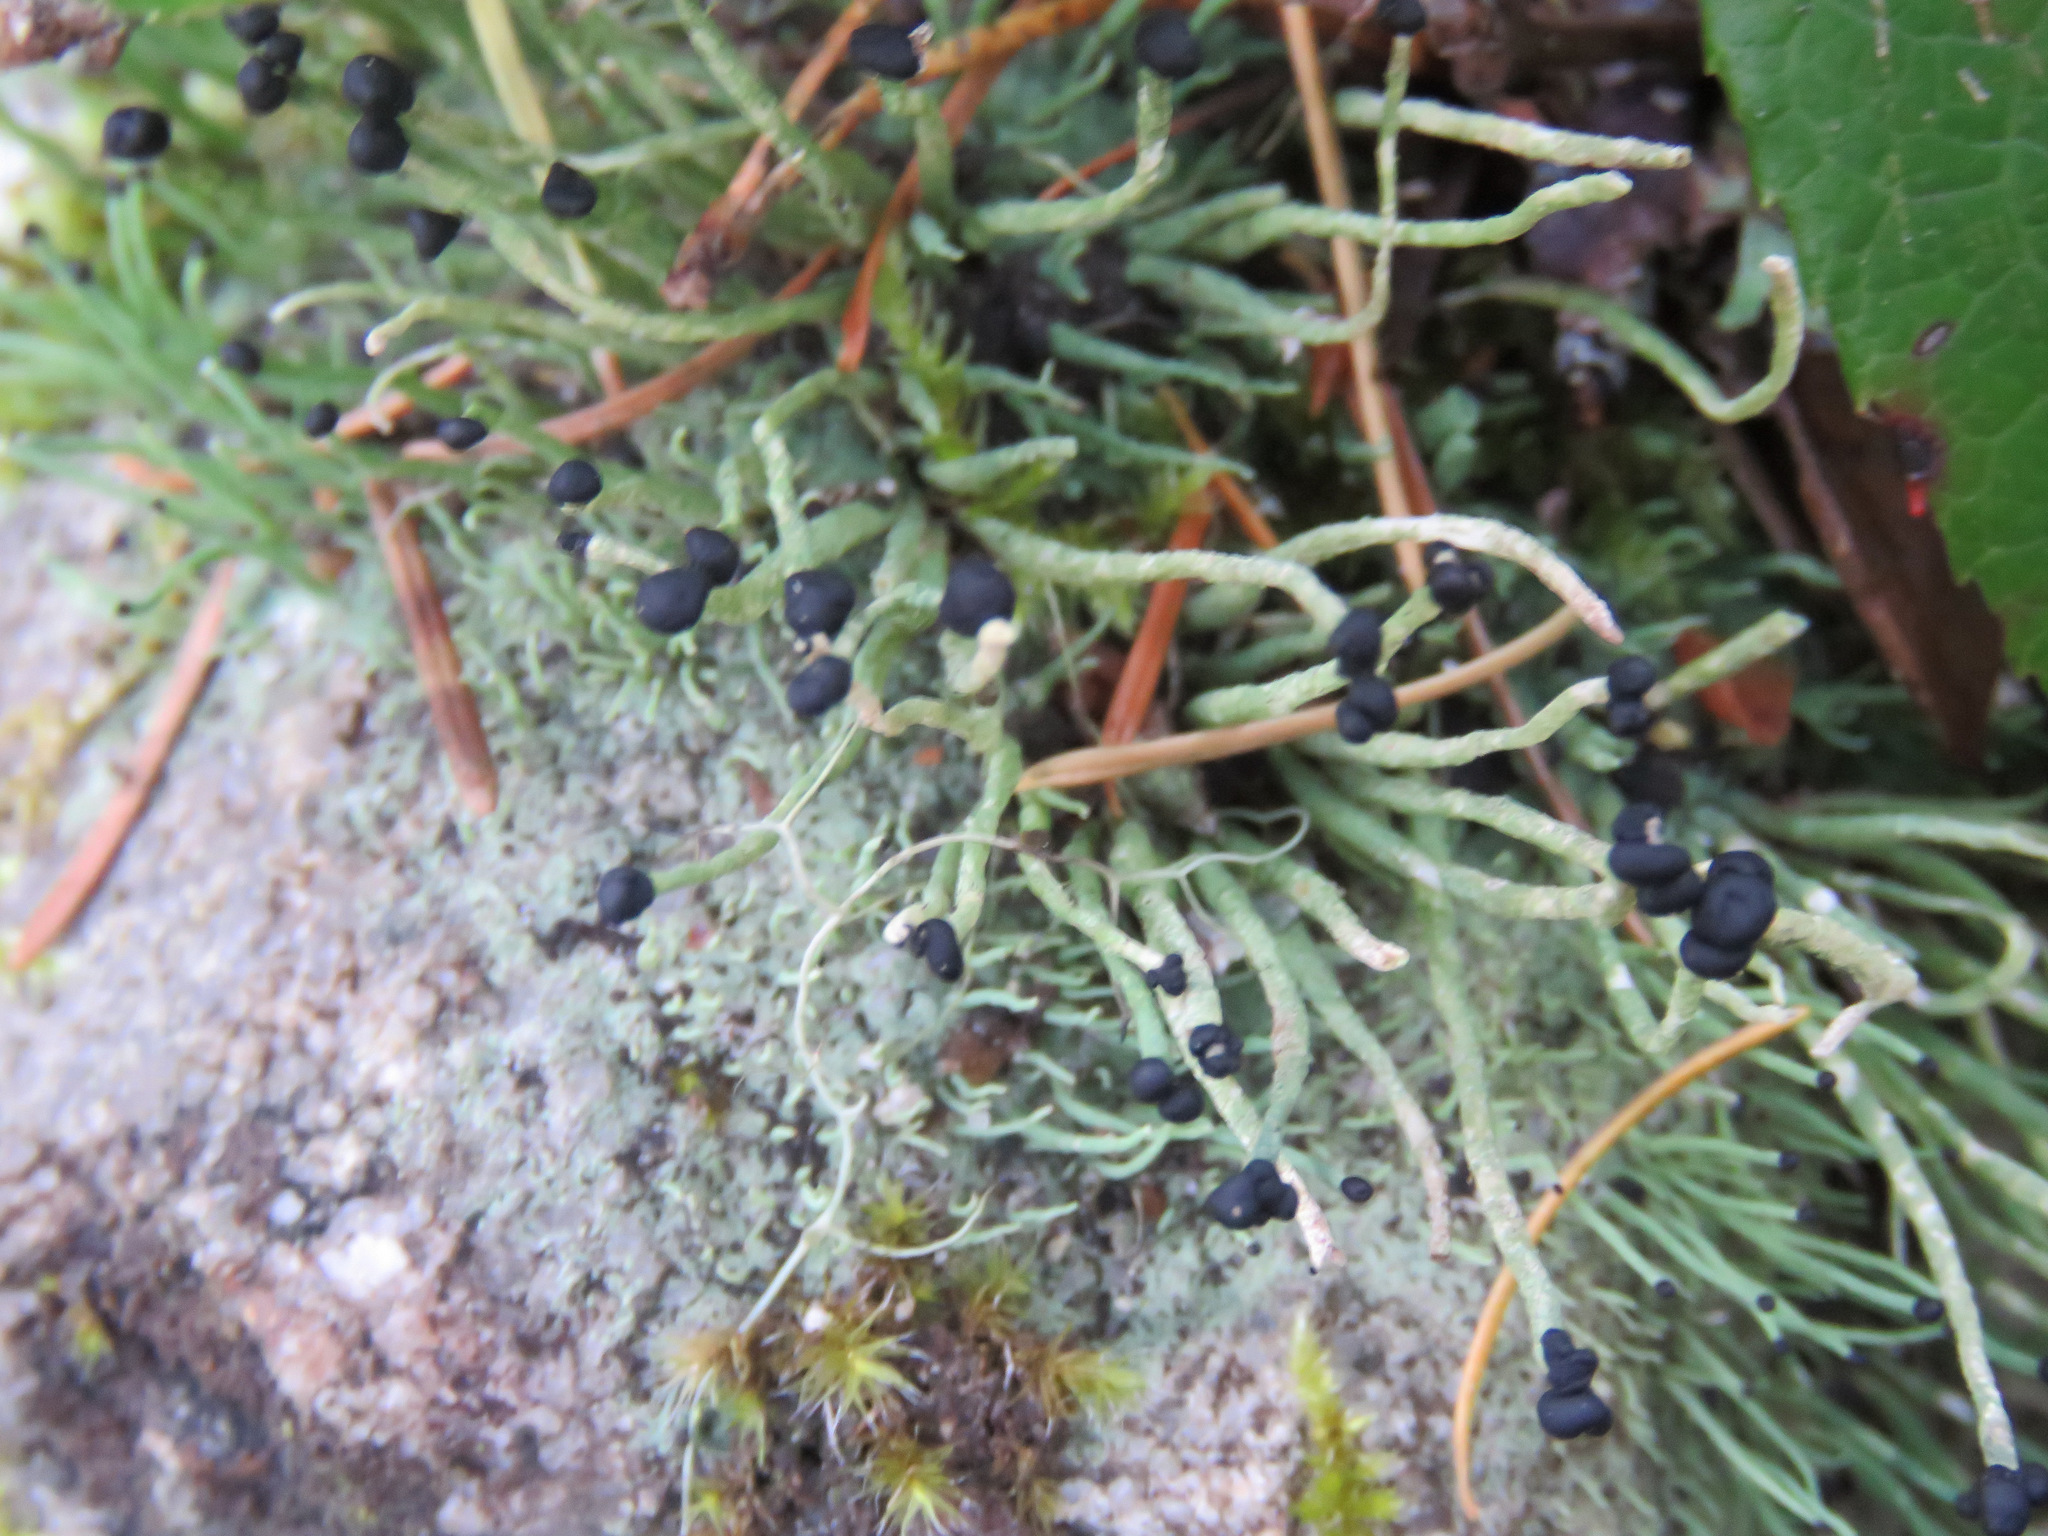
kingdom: Fungi
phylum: Ascomycota
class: Lecanoromycetes
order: Lecanorales
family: Cladoniaceae
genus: Pilophorus
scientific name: Pilophorus acicularis
